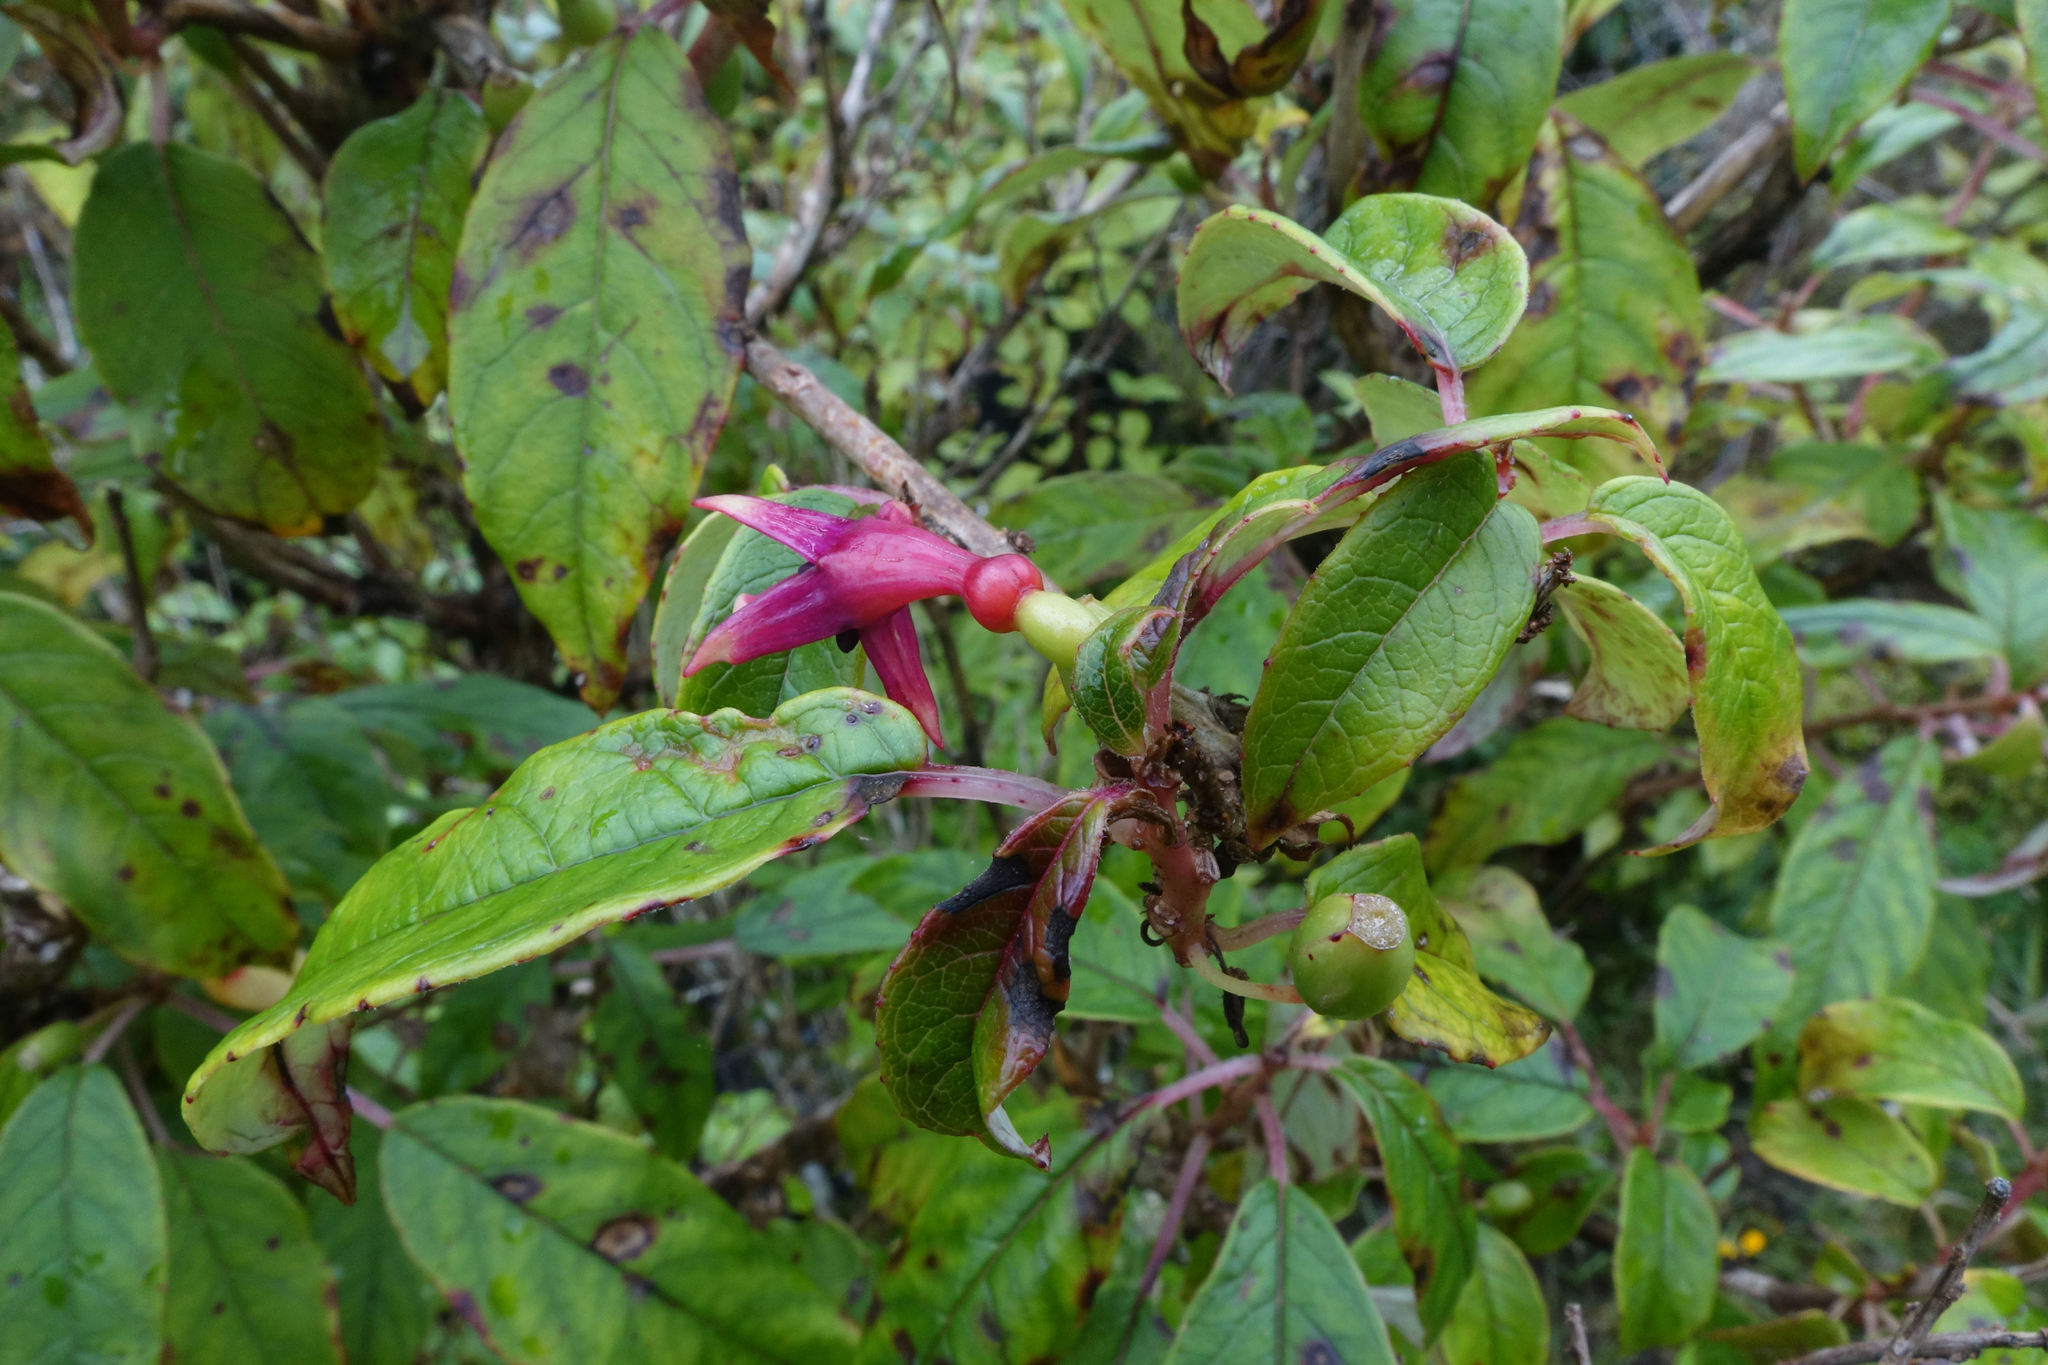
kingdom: Plantae
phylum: Tracheophyta
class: Magnoliopsida
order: Myrtales
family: Onagraceae
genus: Fuchsia
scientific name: Fuchsia excorticata
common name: Tree fuchsia
